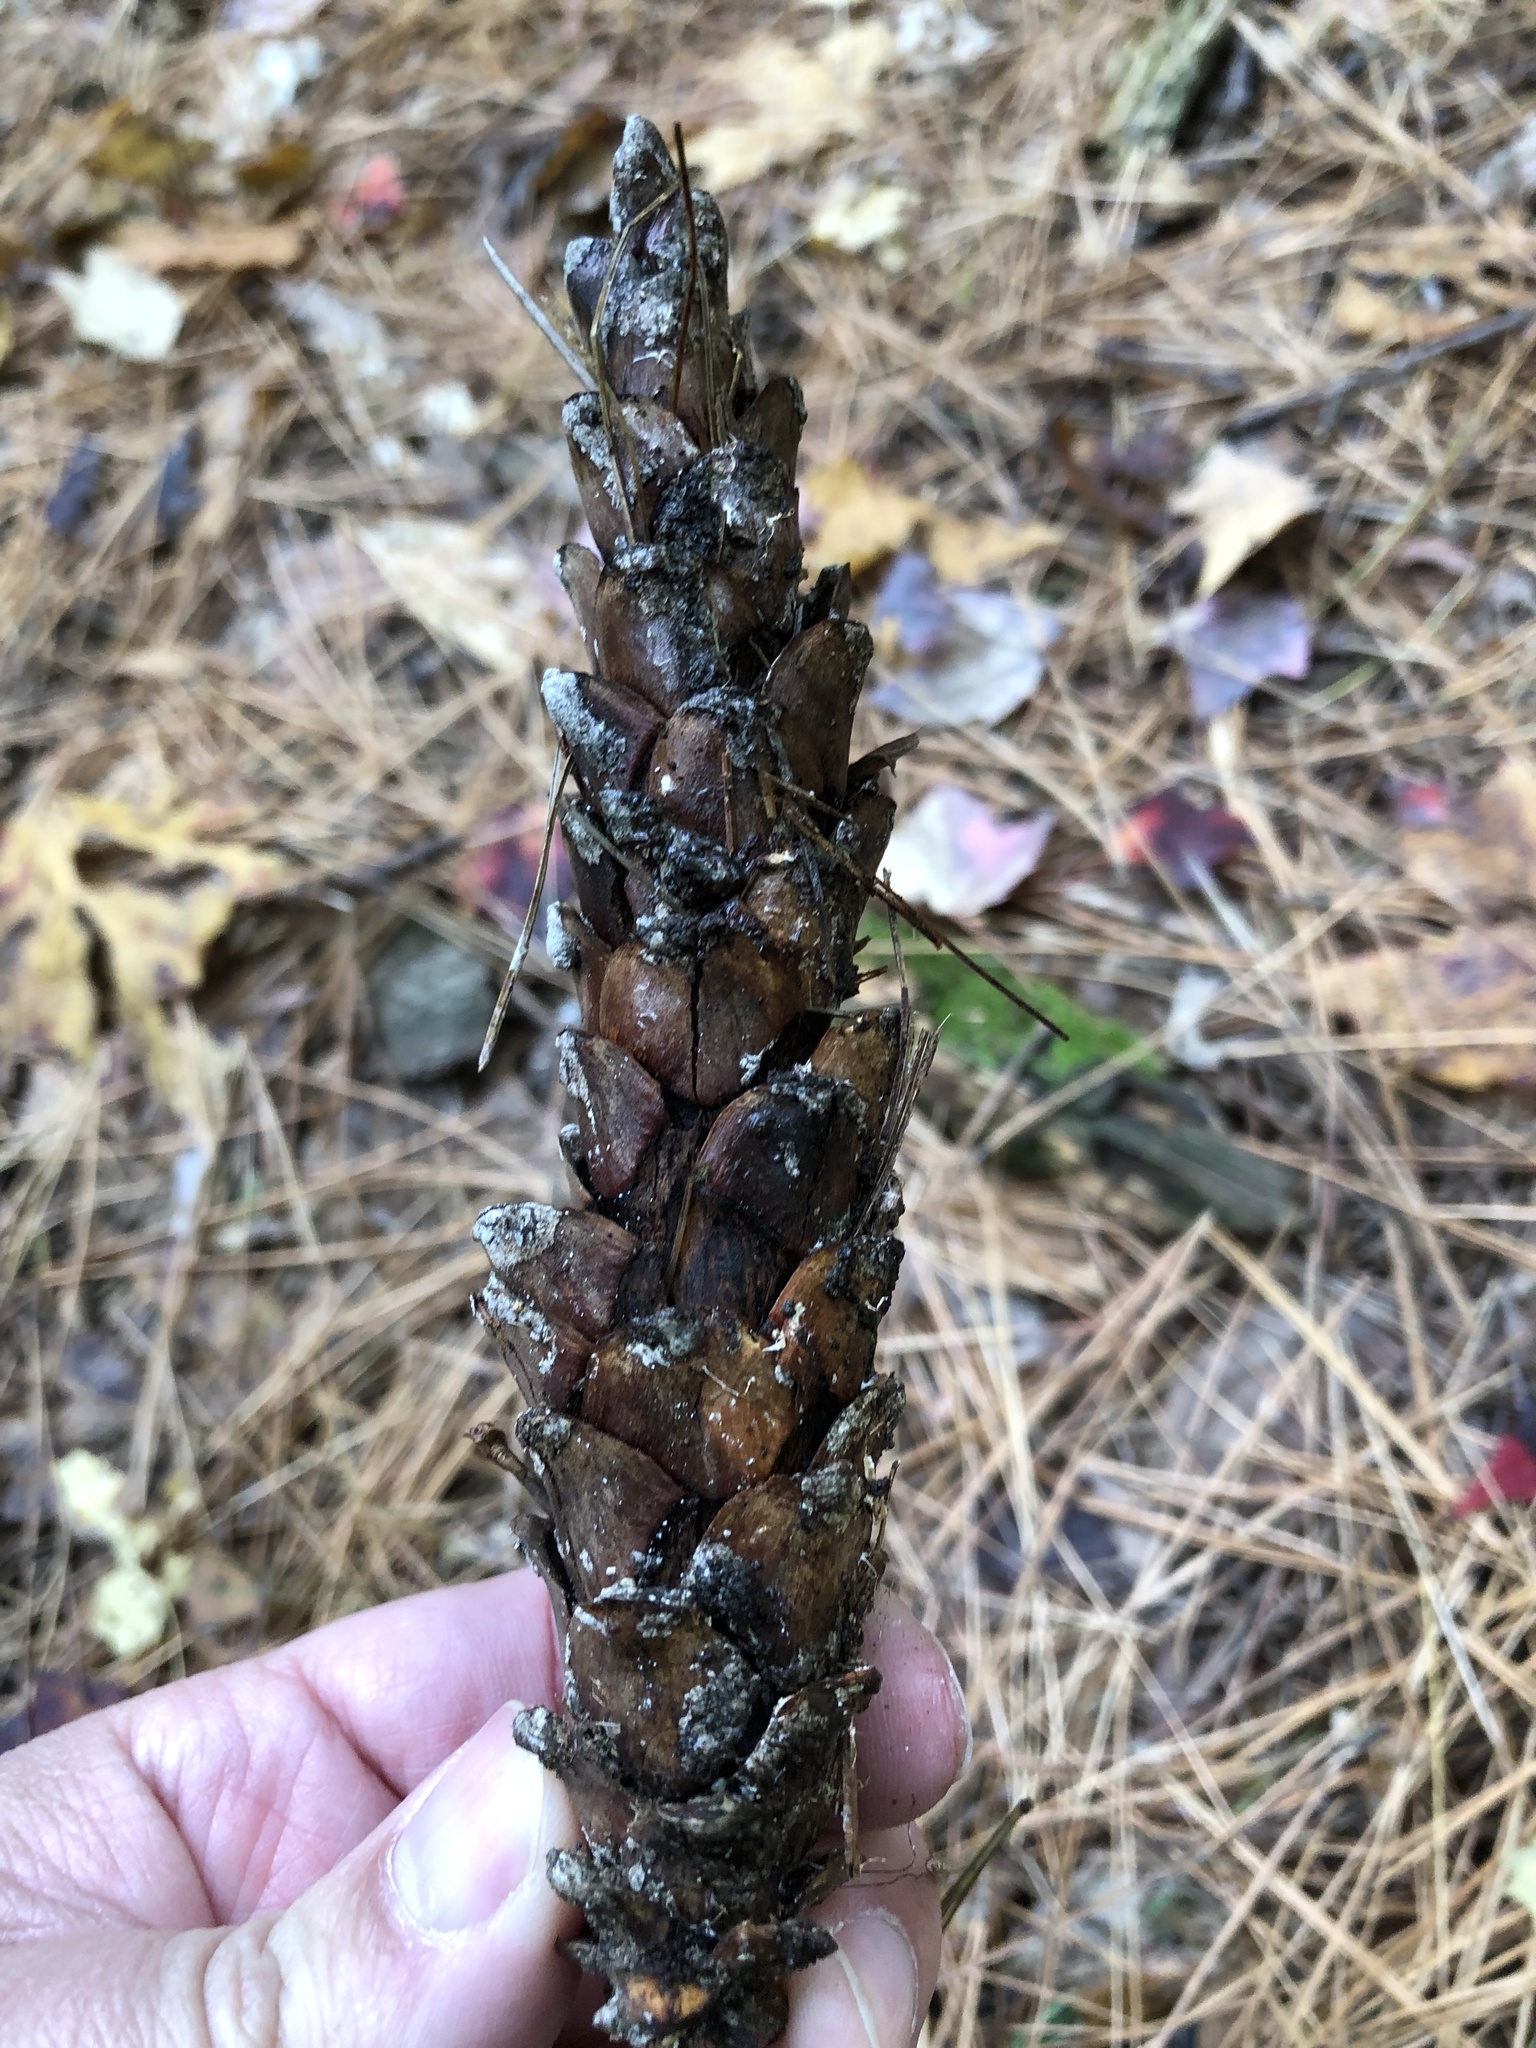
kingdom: Plantae
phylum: Tracheophyta
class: Pinopsida
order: Pinales
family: Pinaceae
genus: Pinus
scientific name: Pinus strobus
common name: Weymouth pine
